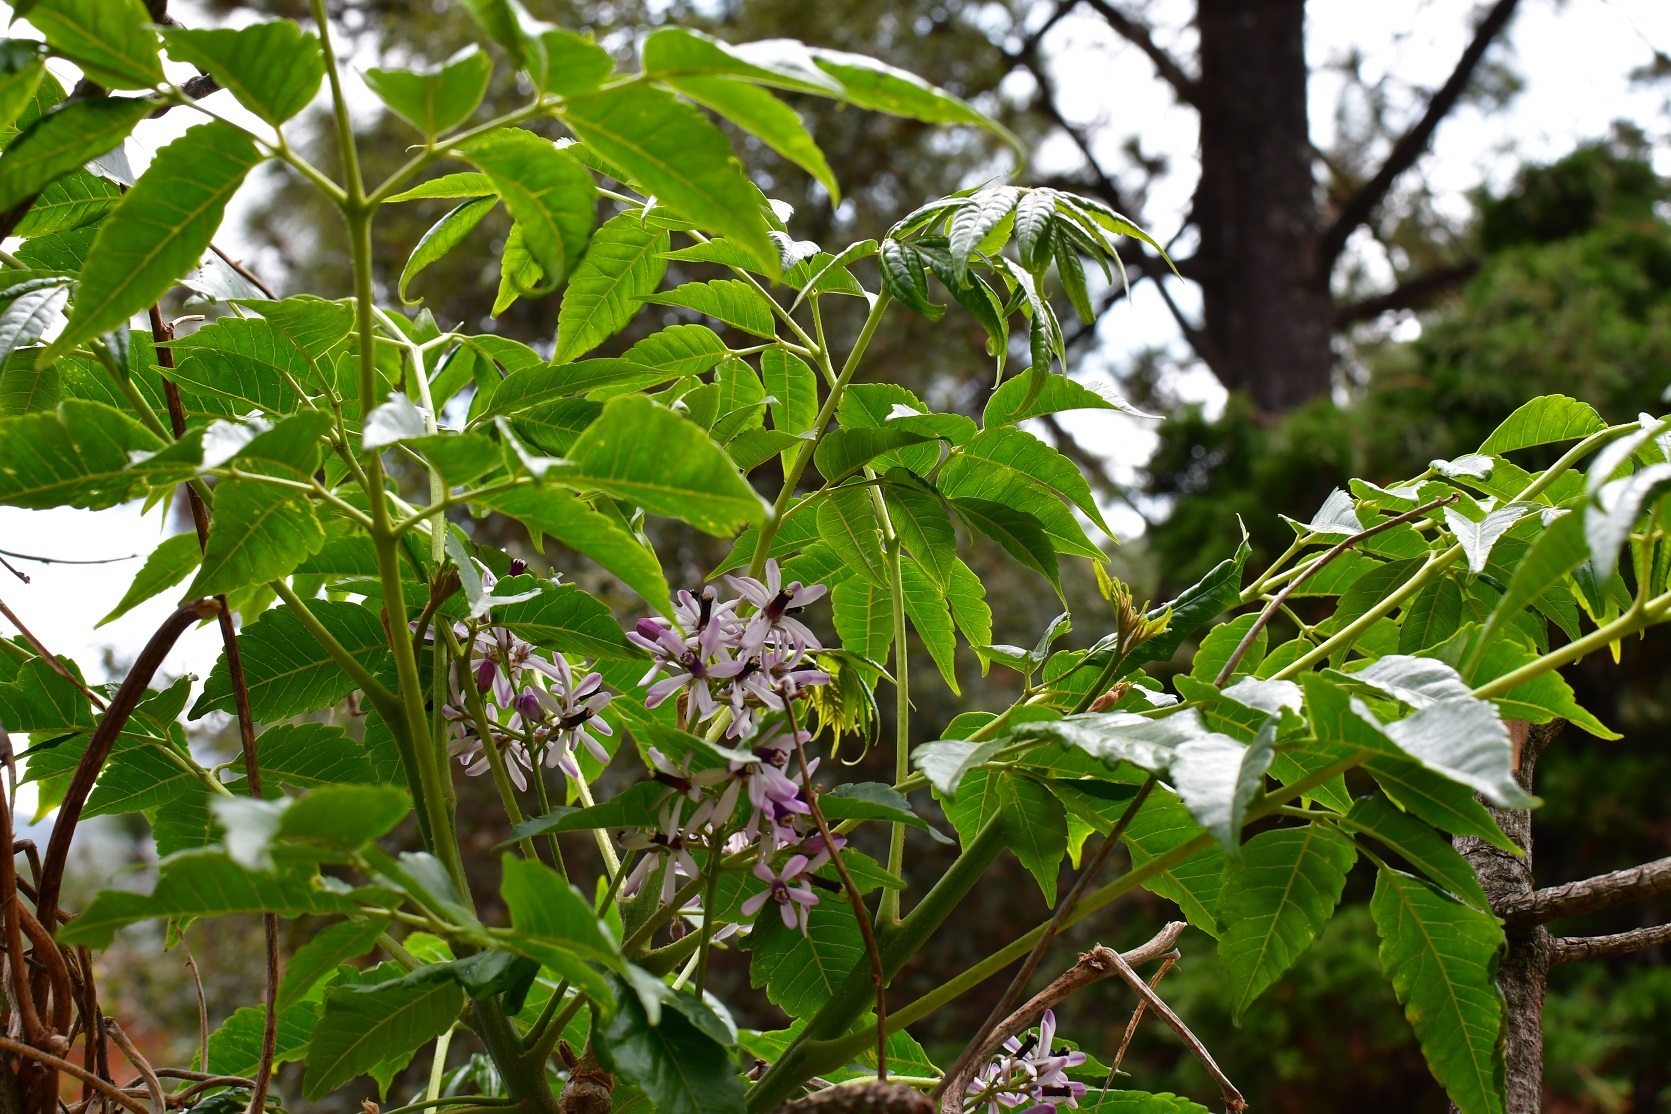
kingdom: Plantae
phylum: Tracheophyta
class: Magnoliopsida
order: Sapindales
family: Meliaceae
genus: Melia
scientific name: Melia azedarach
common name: Chinaberrytree
